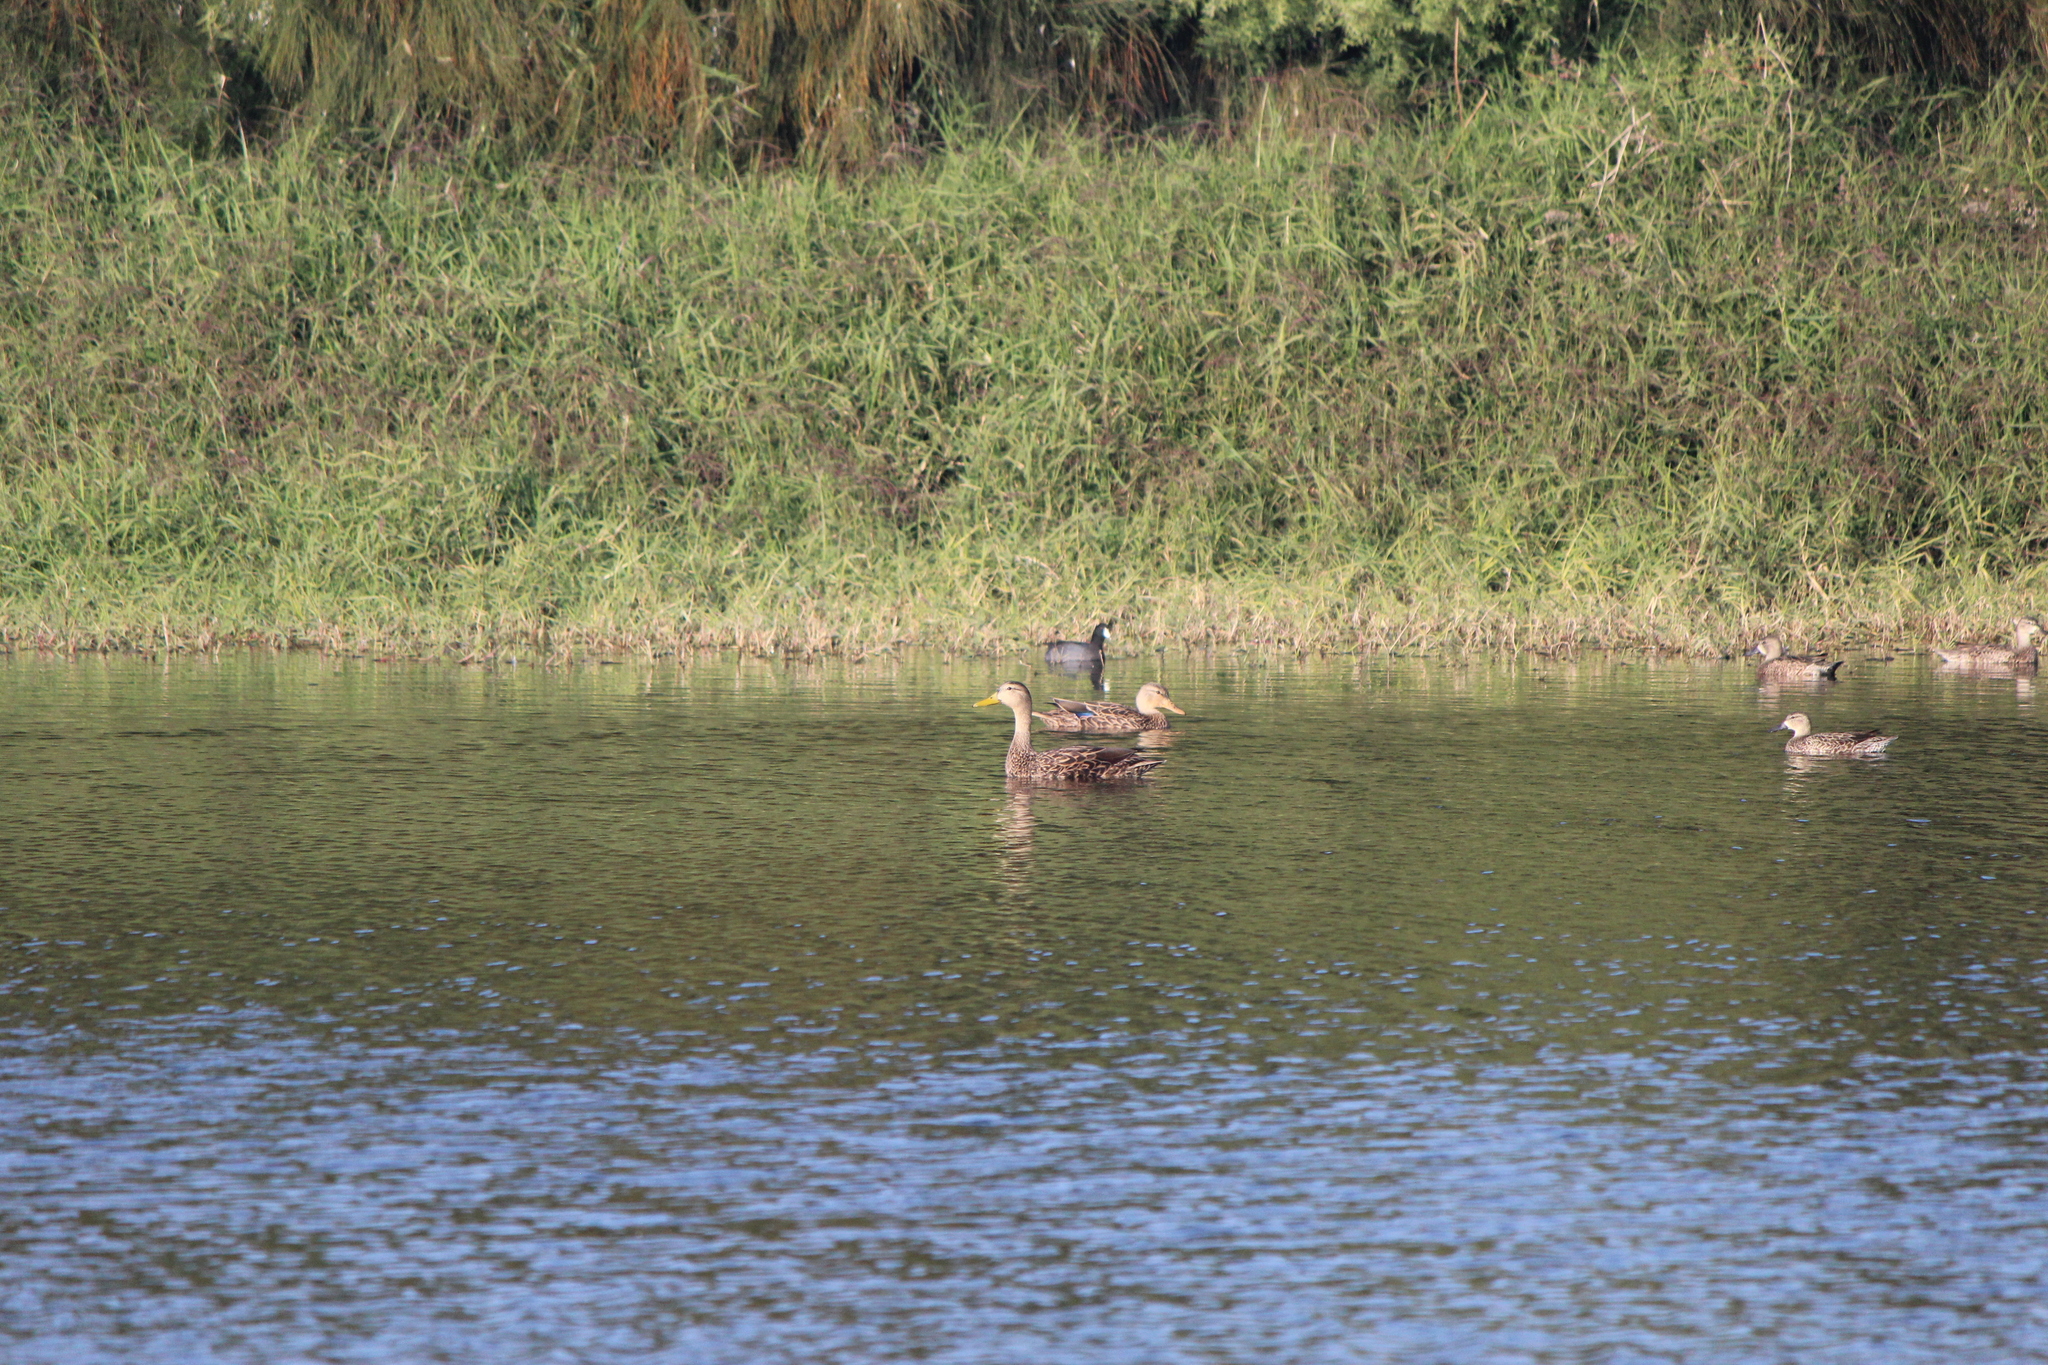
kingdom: Animalia
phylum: Chordata
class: Aves
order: Anseriformes
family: Anatidae
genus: Anas
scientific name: Anas diazi
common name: Mexican duck
